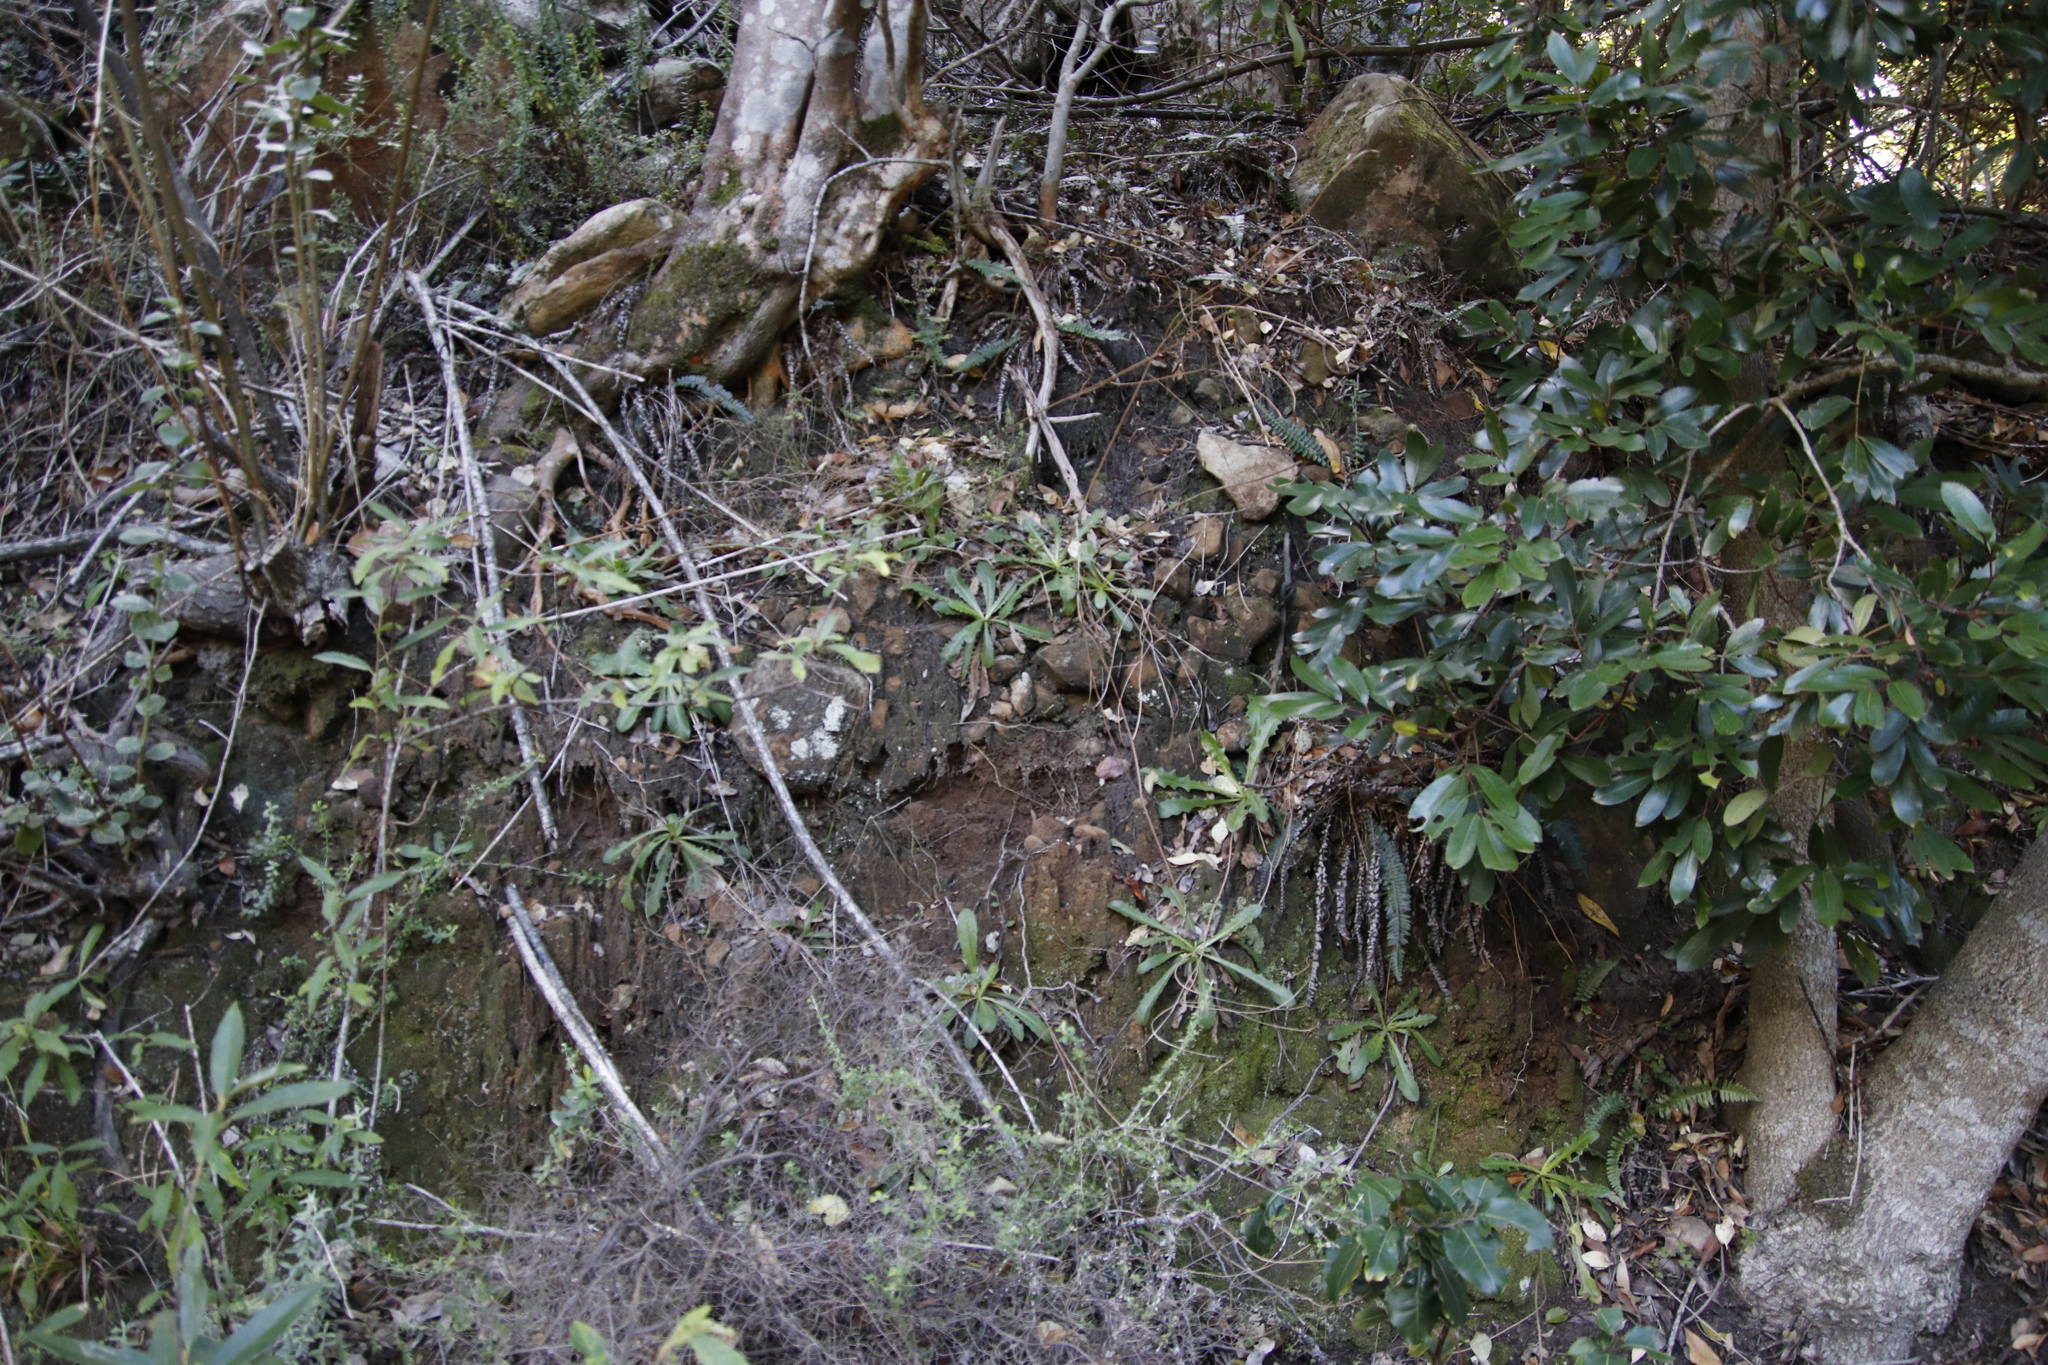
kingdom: Plantae
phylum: Tracheophyta
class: Magnoliopsida
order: Asterales
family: Asteraceae
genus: Hypochaeris
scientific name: Hypochaeris radicata
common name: Flatweed
